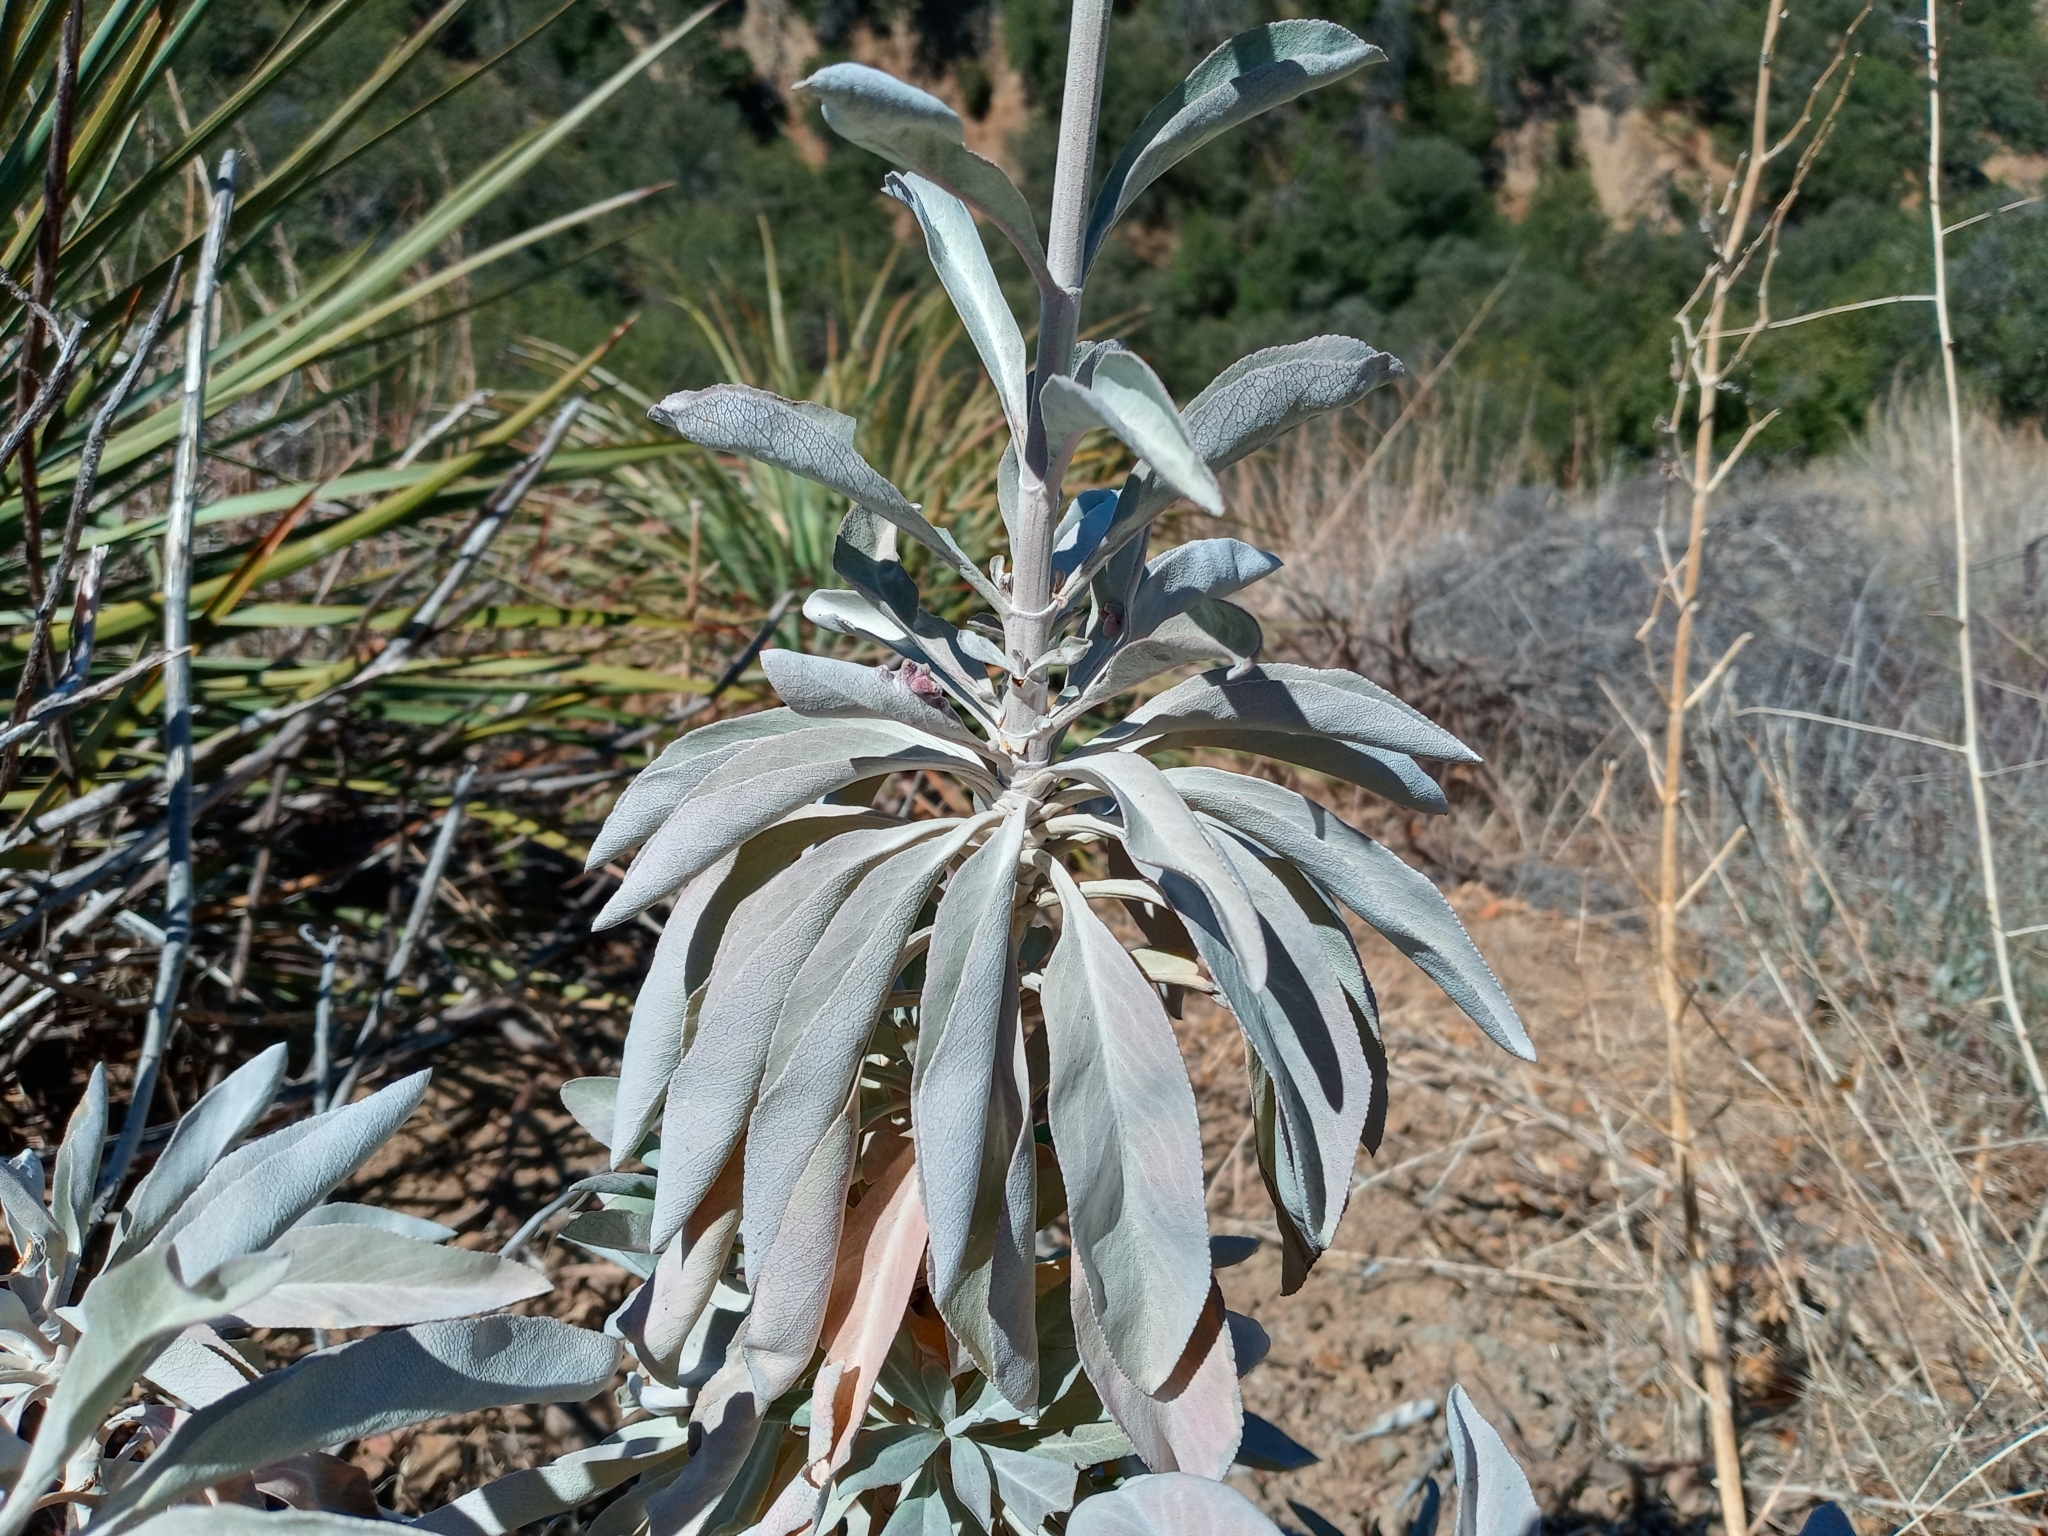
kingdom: Plantae
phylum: Tracheophyta
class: Magnoliopsida
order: Lamiales
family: Lamiaceae
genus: Salvia
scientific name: Salvia apiana
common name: White sage
